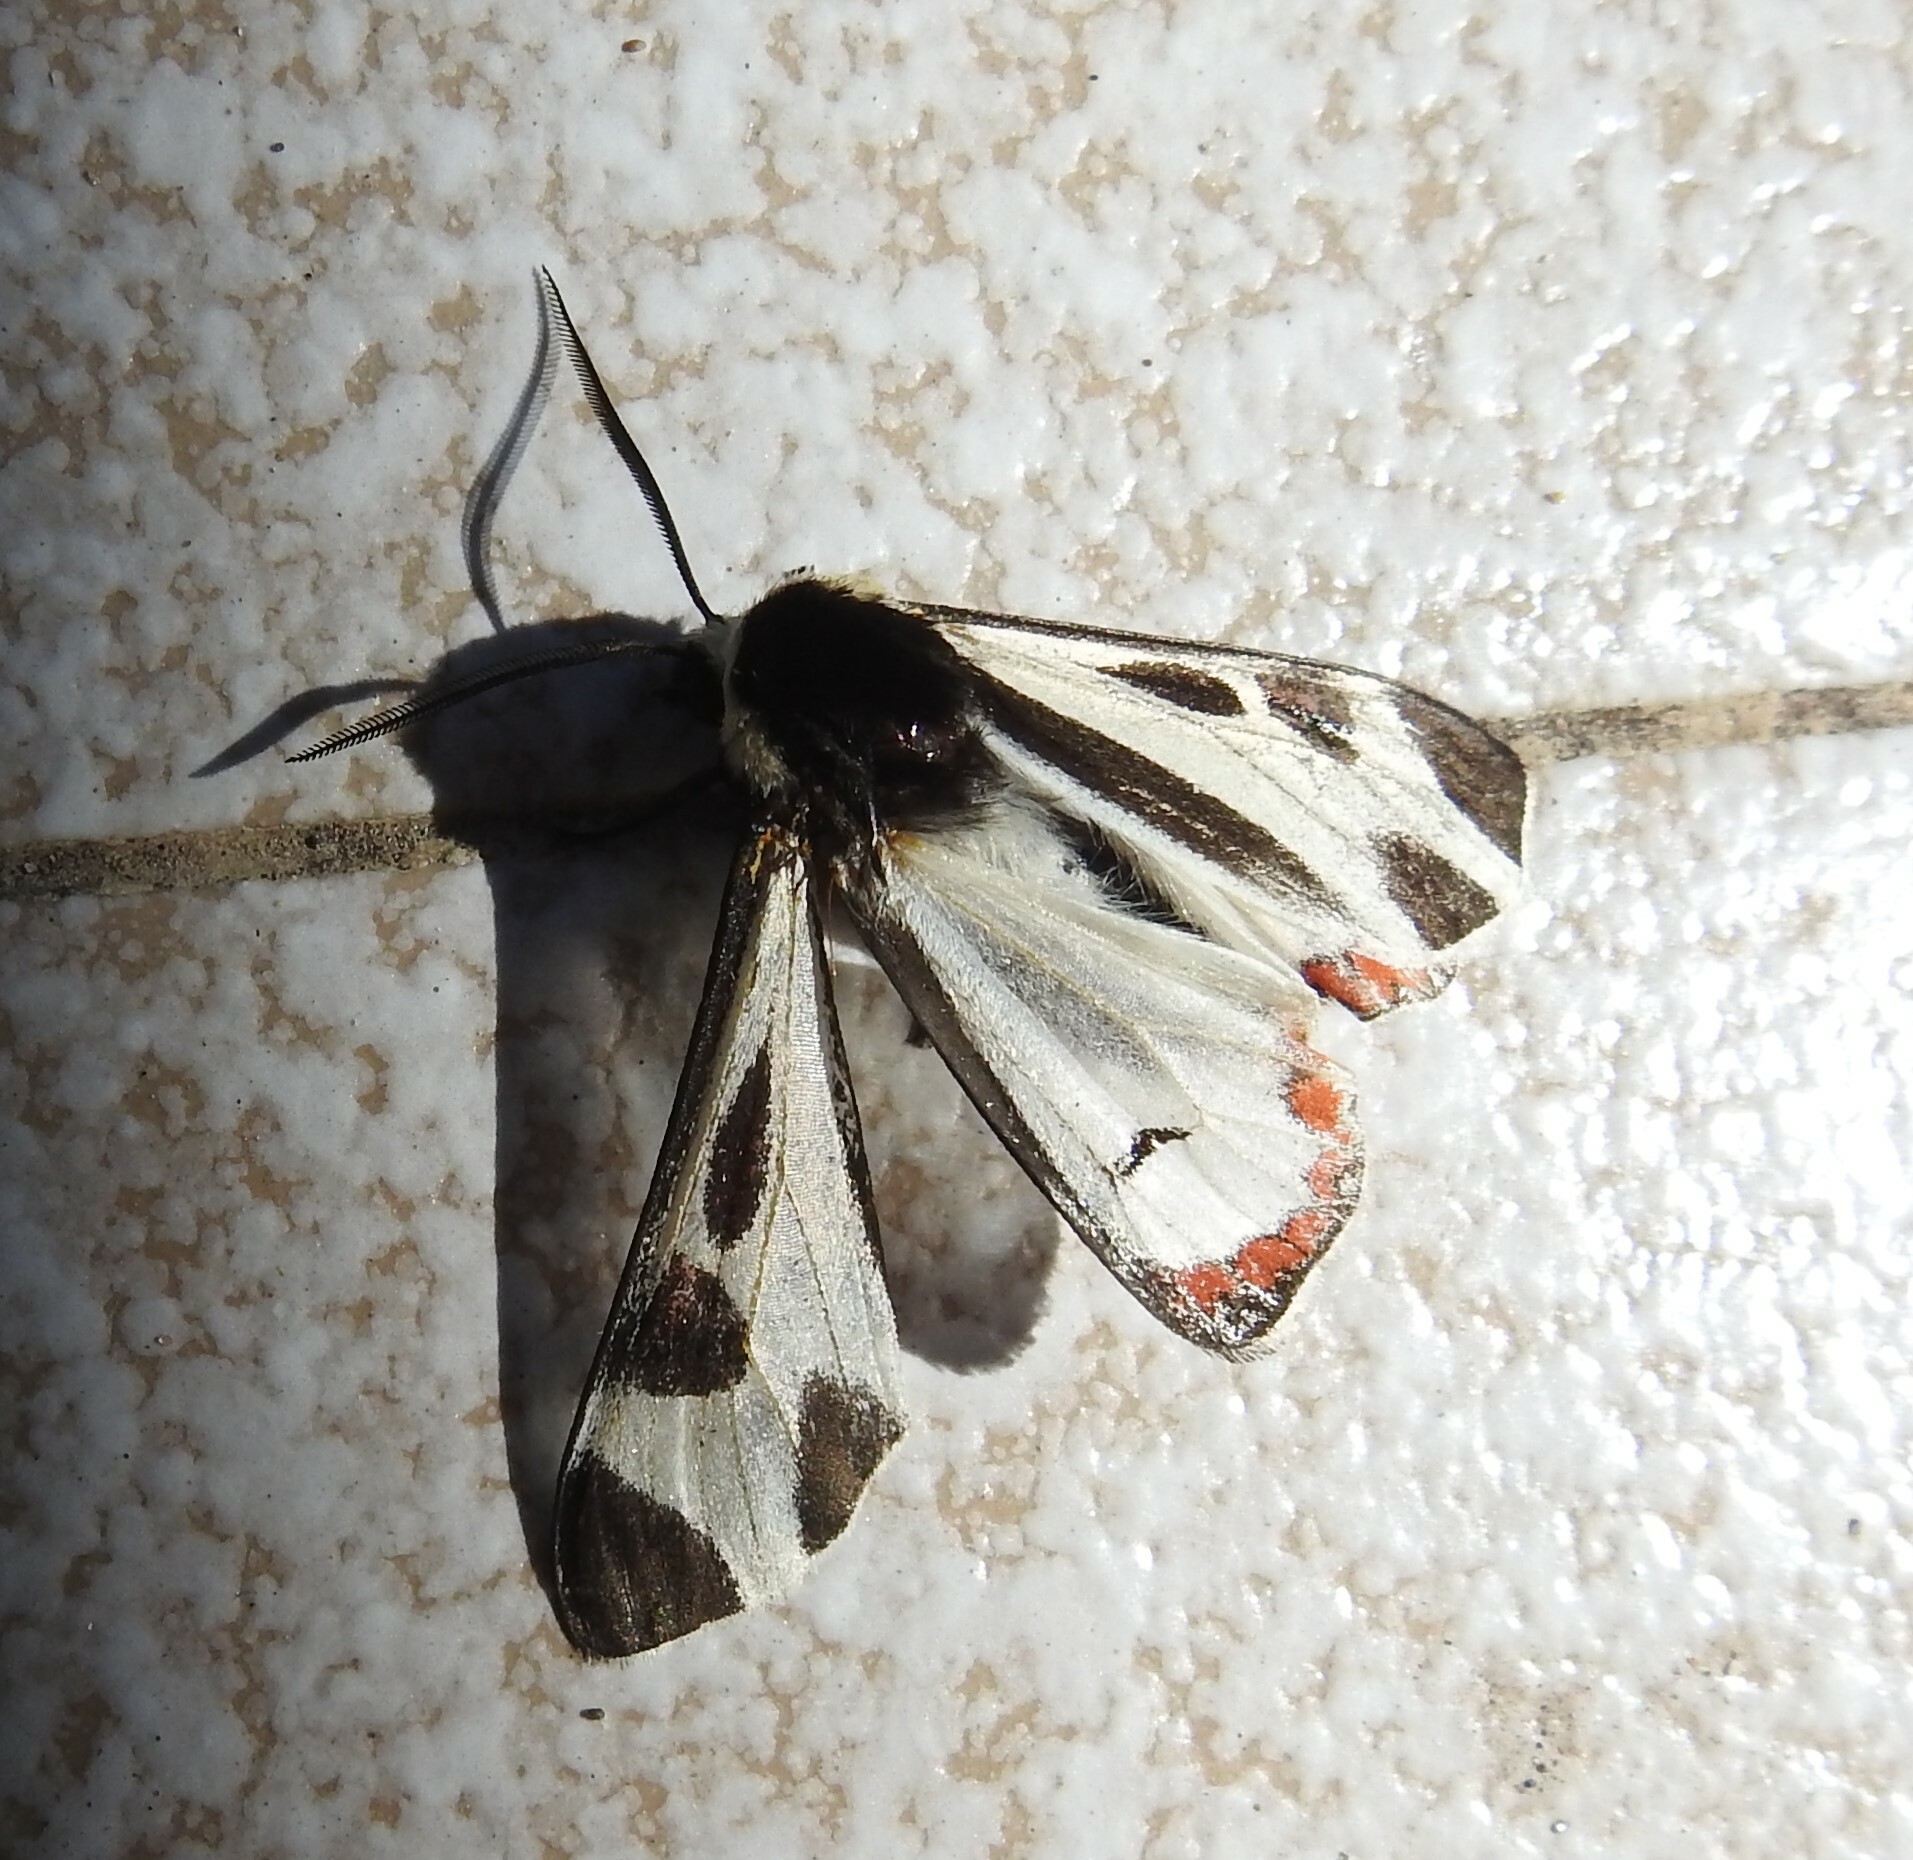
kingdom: Animalia
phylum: Arthropoda
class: Insecta
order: Lepidoptera
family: Erebidae
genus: Dysschema
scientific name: Dysschema centenaria
